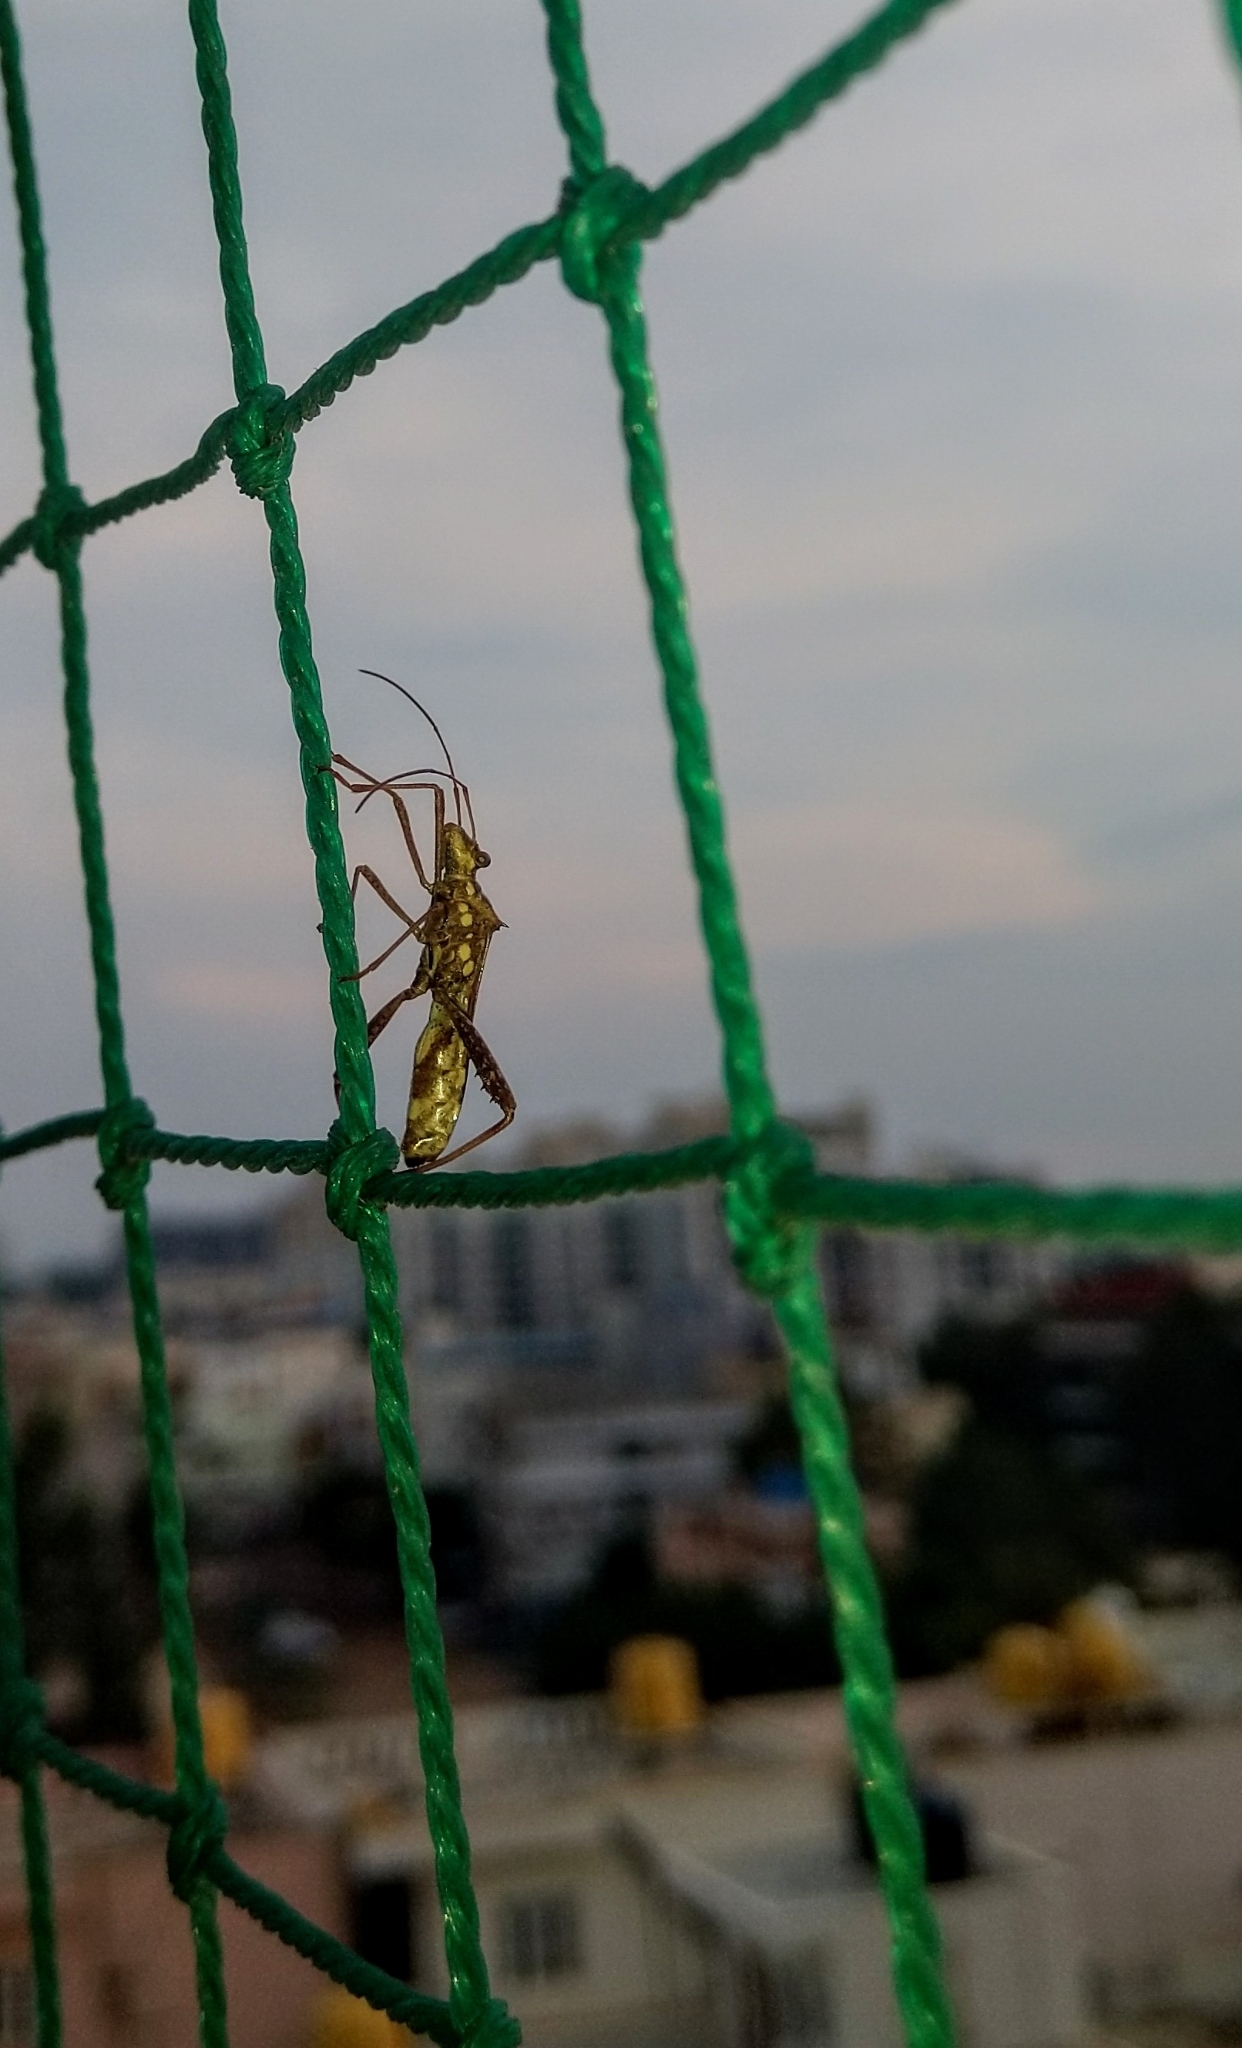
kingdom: Animalia
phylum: Arthropoda
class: Insecta
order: Hemiptera
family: Alydidae
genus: Riptortus
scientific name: Riptortus pedestris
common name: Bean bug
